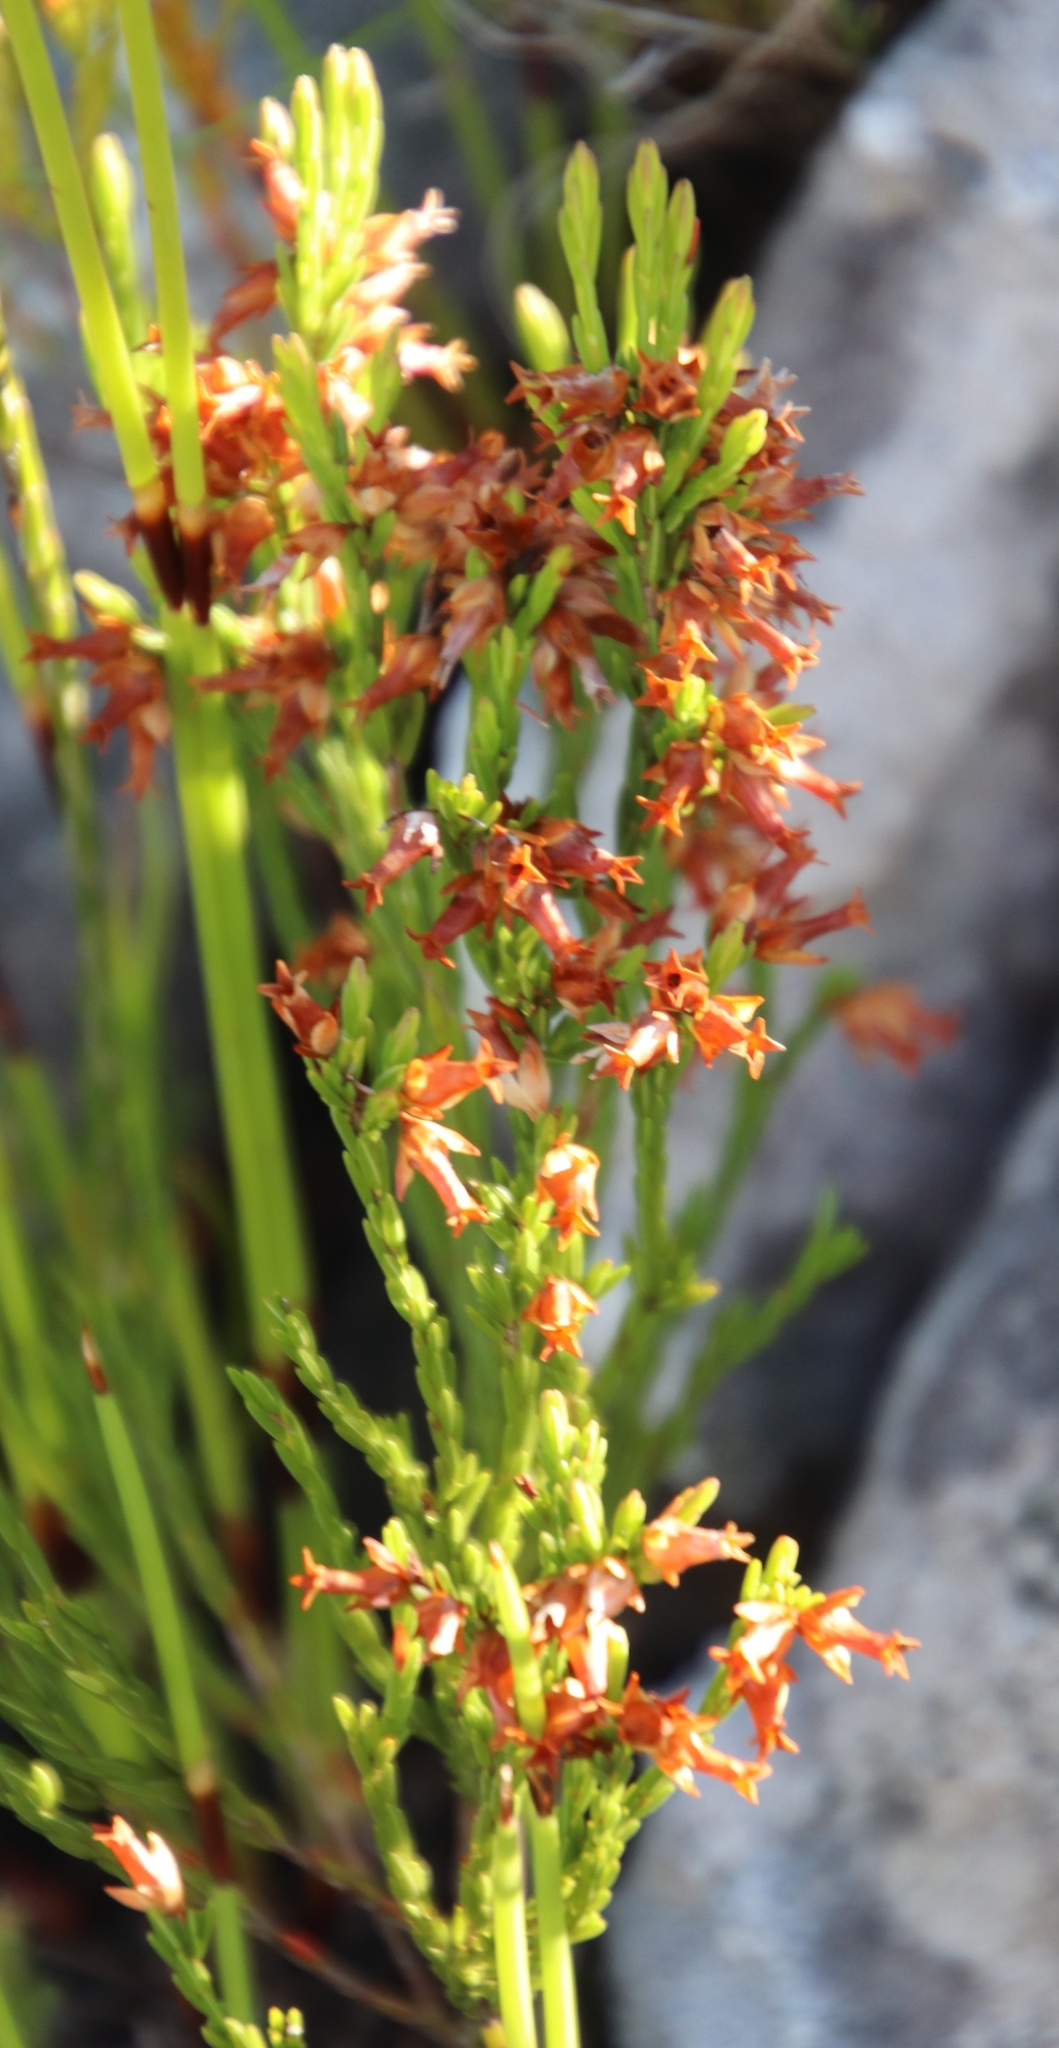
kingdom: Plantae
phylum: Tracheophyta
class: Magnoliopsida
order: Ericales
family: Ericaceae
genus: Erica
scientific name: Erica lutea
